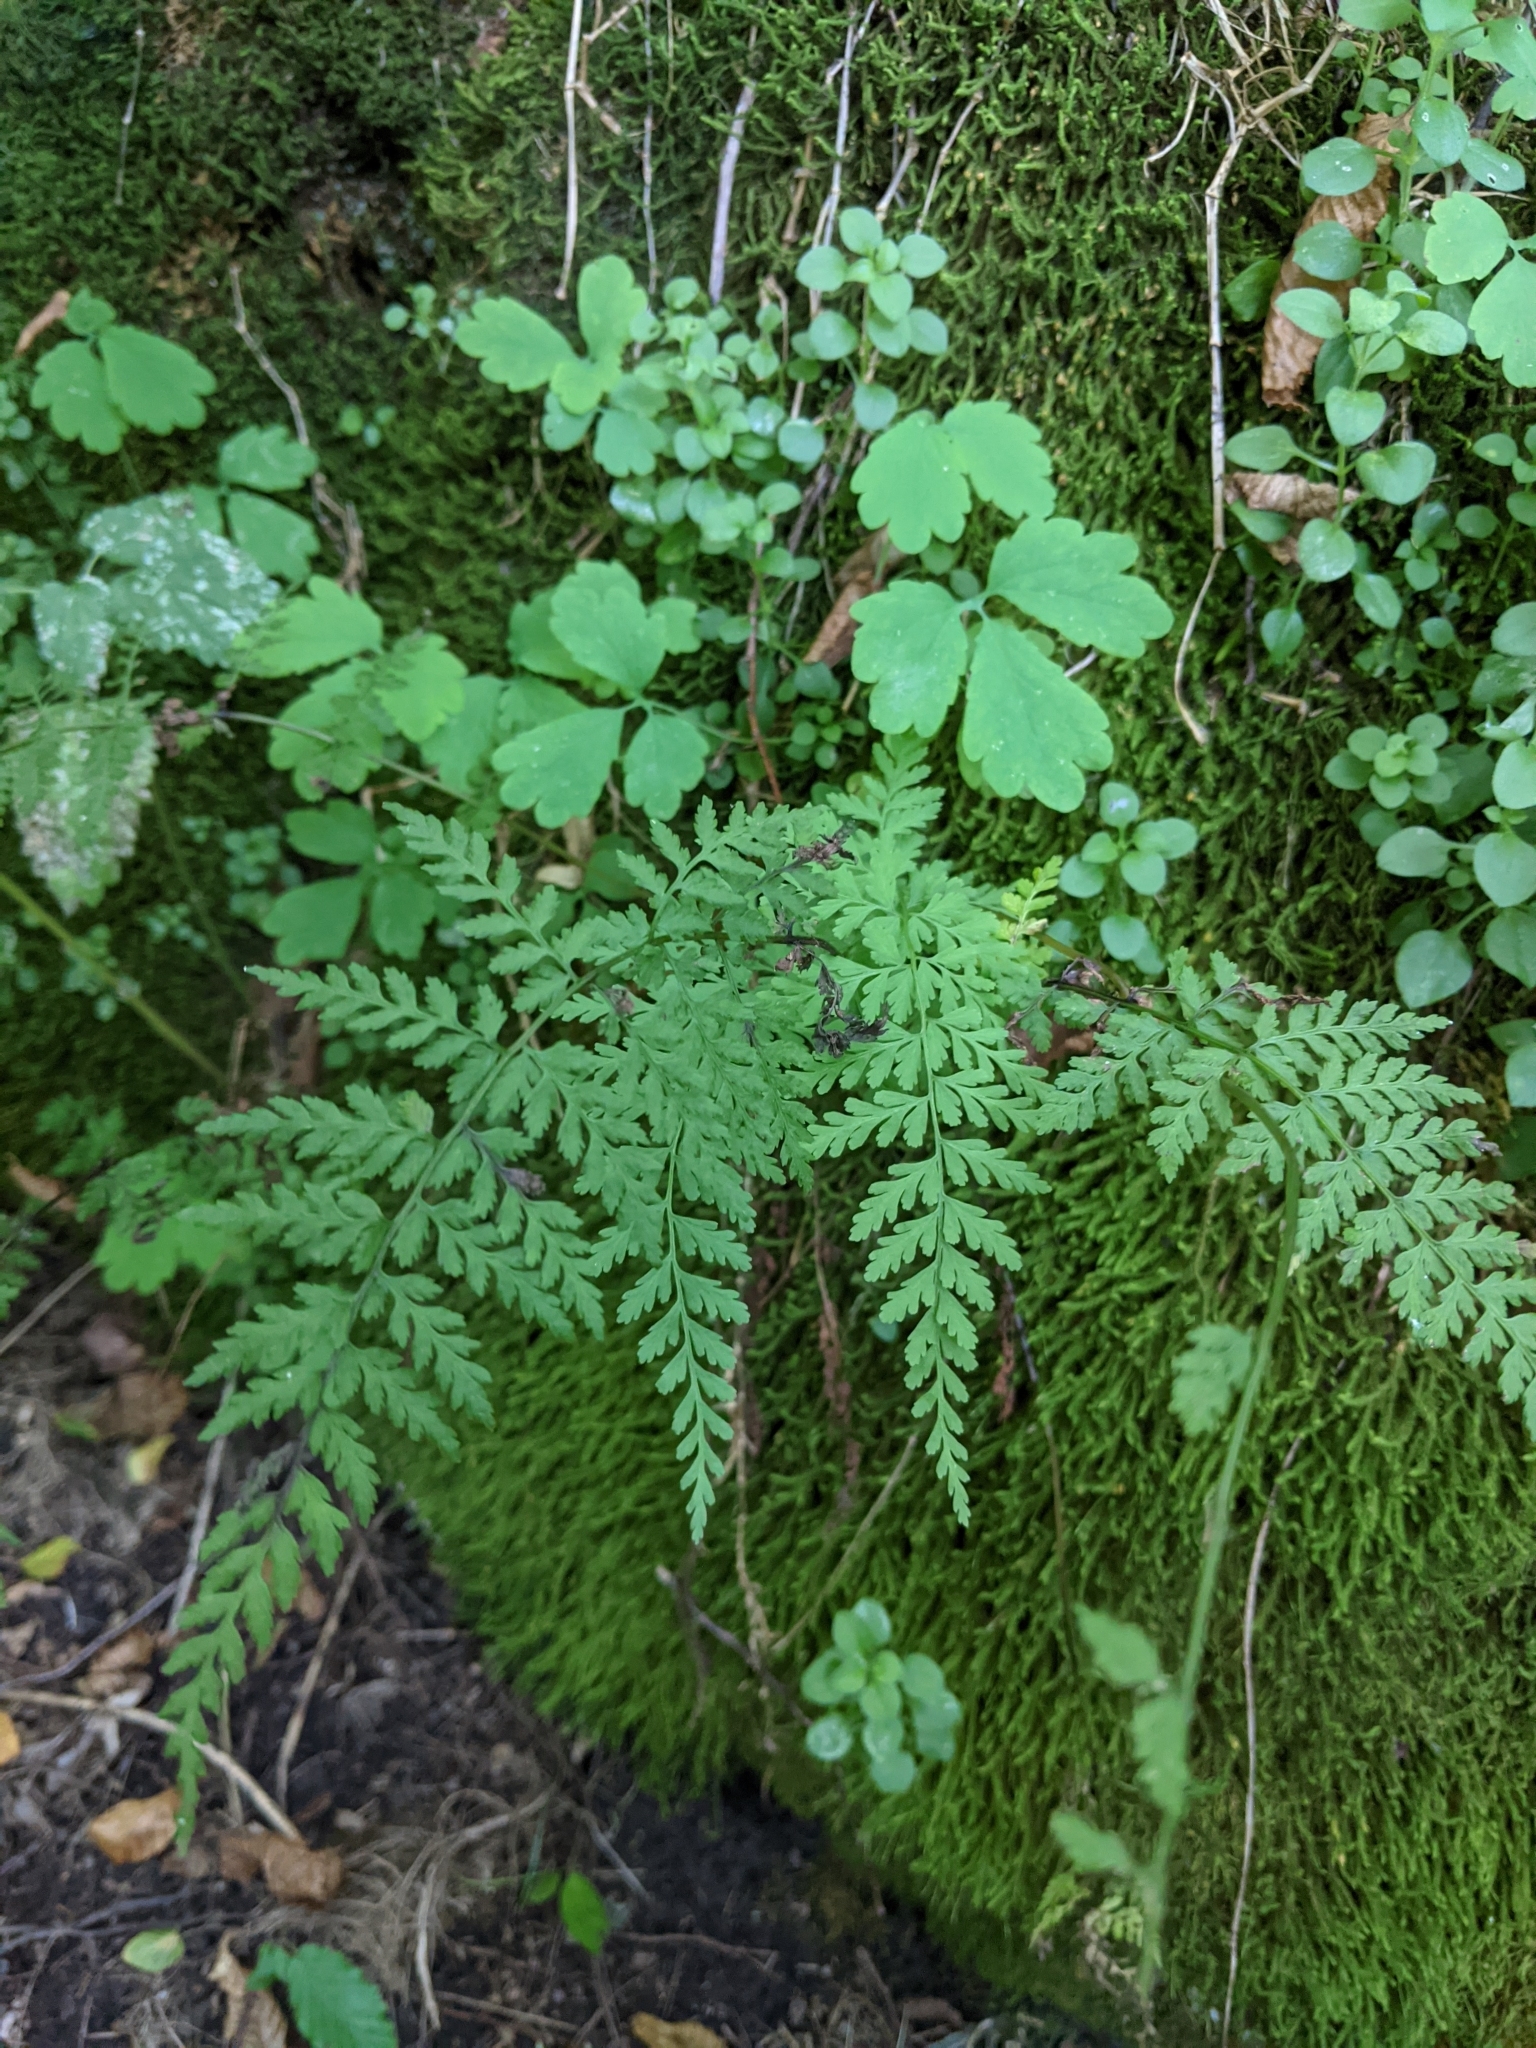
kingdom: Plantae
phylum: Tracheophyta
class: Polypodiopsida
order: Polypodiales
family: Cystopteridaceae
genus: Cystopteris
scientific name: Cystopteris fragilis
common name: Brittle bladder fern
